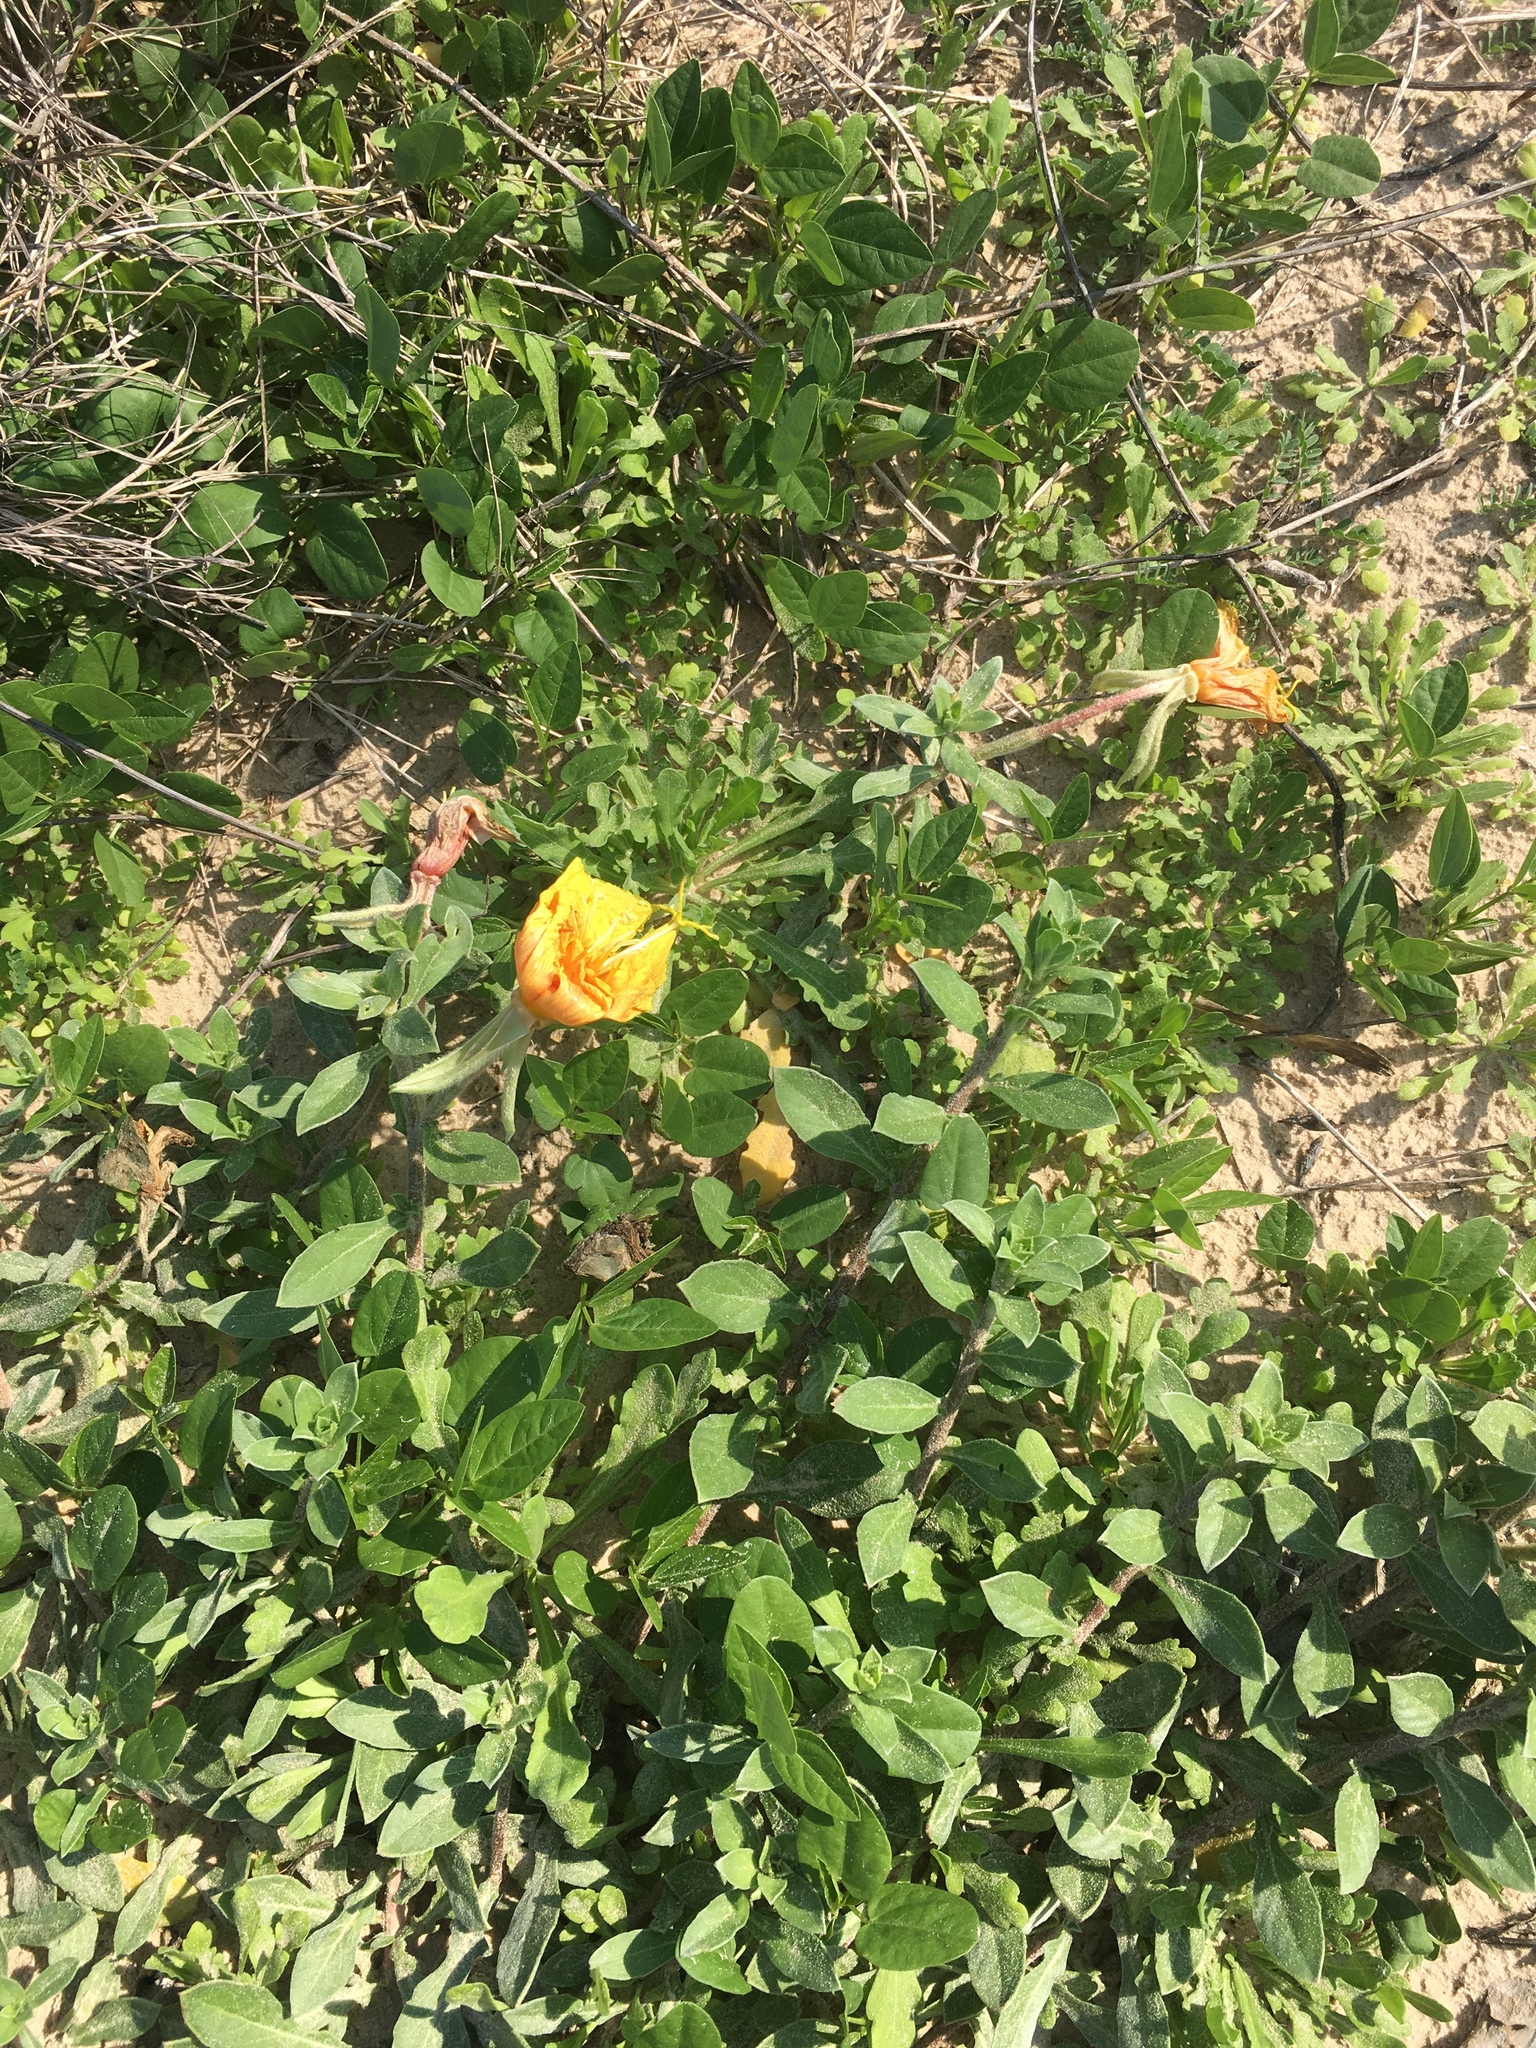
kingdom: Plantae
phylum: Tracheophyta
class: Magnoliopsida
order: Myrtales
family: Onagraceae
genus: Oenothera
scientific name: Oenothera drummondii
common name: Beach evening-primrose
